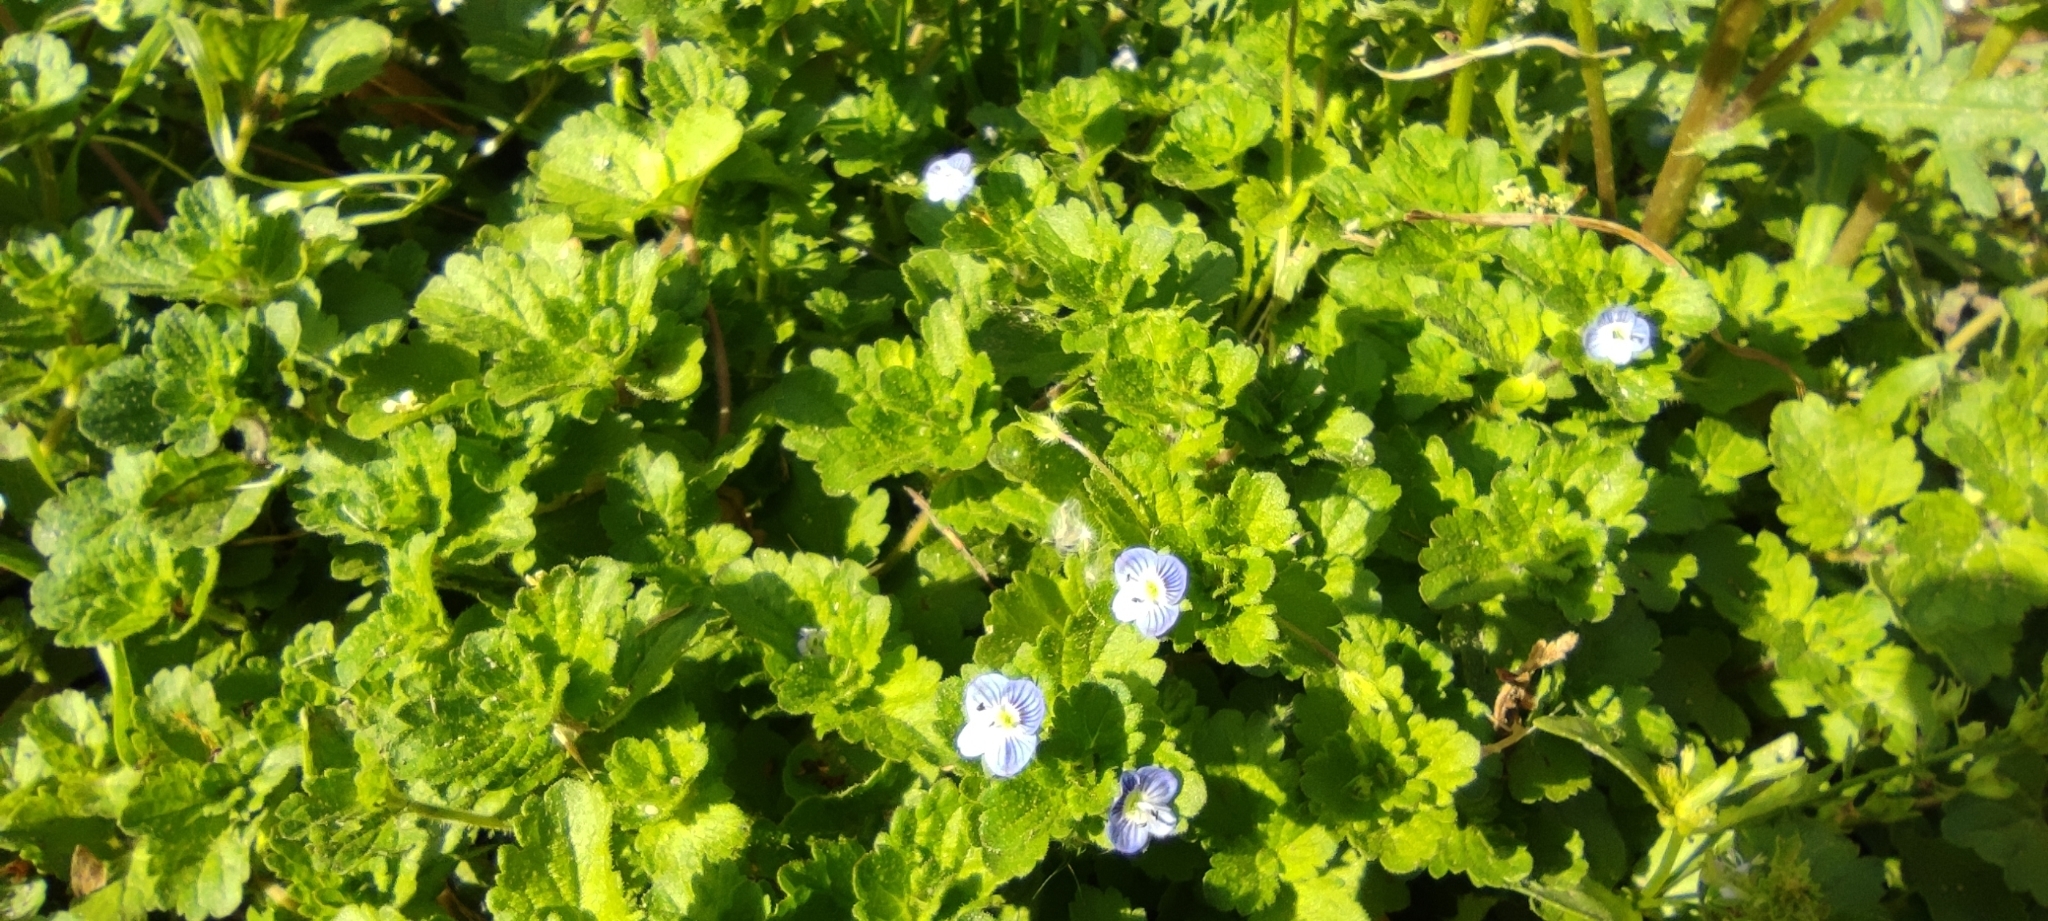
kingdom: Plantae
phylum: Tracheophyta
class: Magnoliopsida
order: Lamiales
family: Plantaginaceae
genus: Veronica
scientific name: Veronica persica
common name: Common field-speedwell
